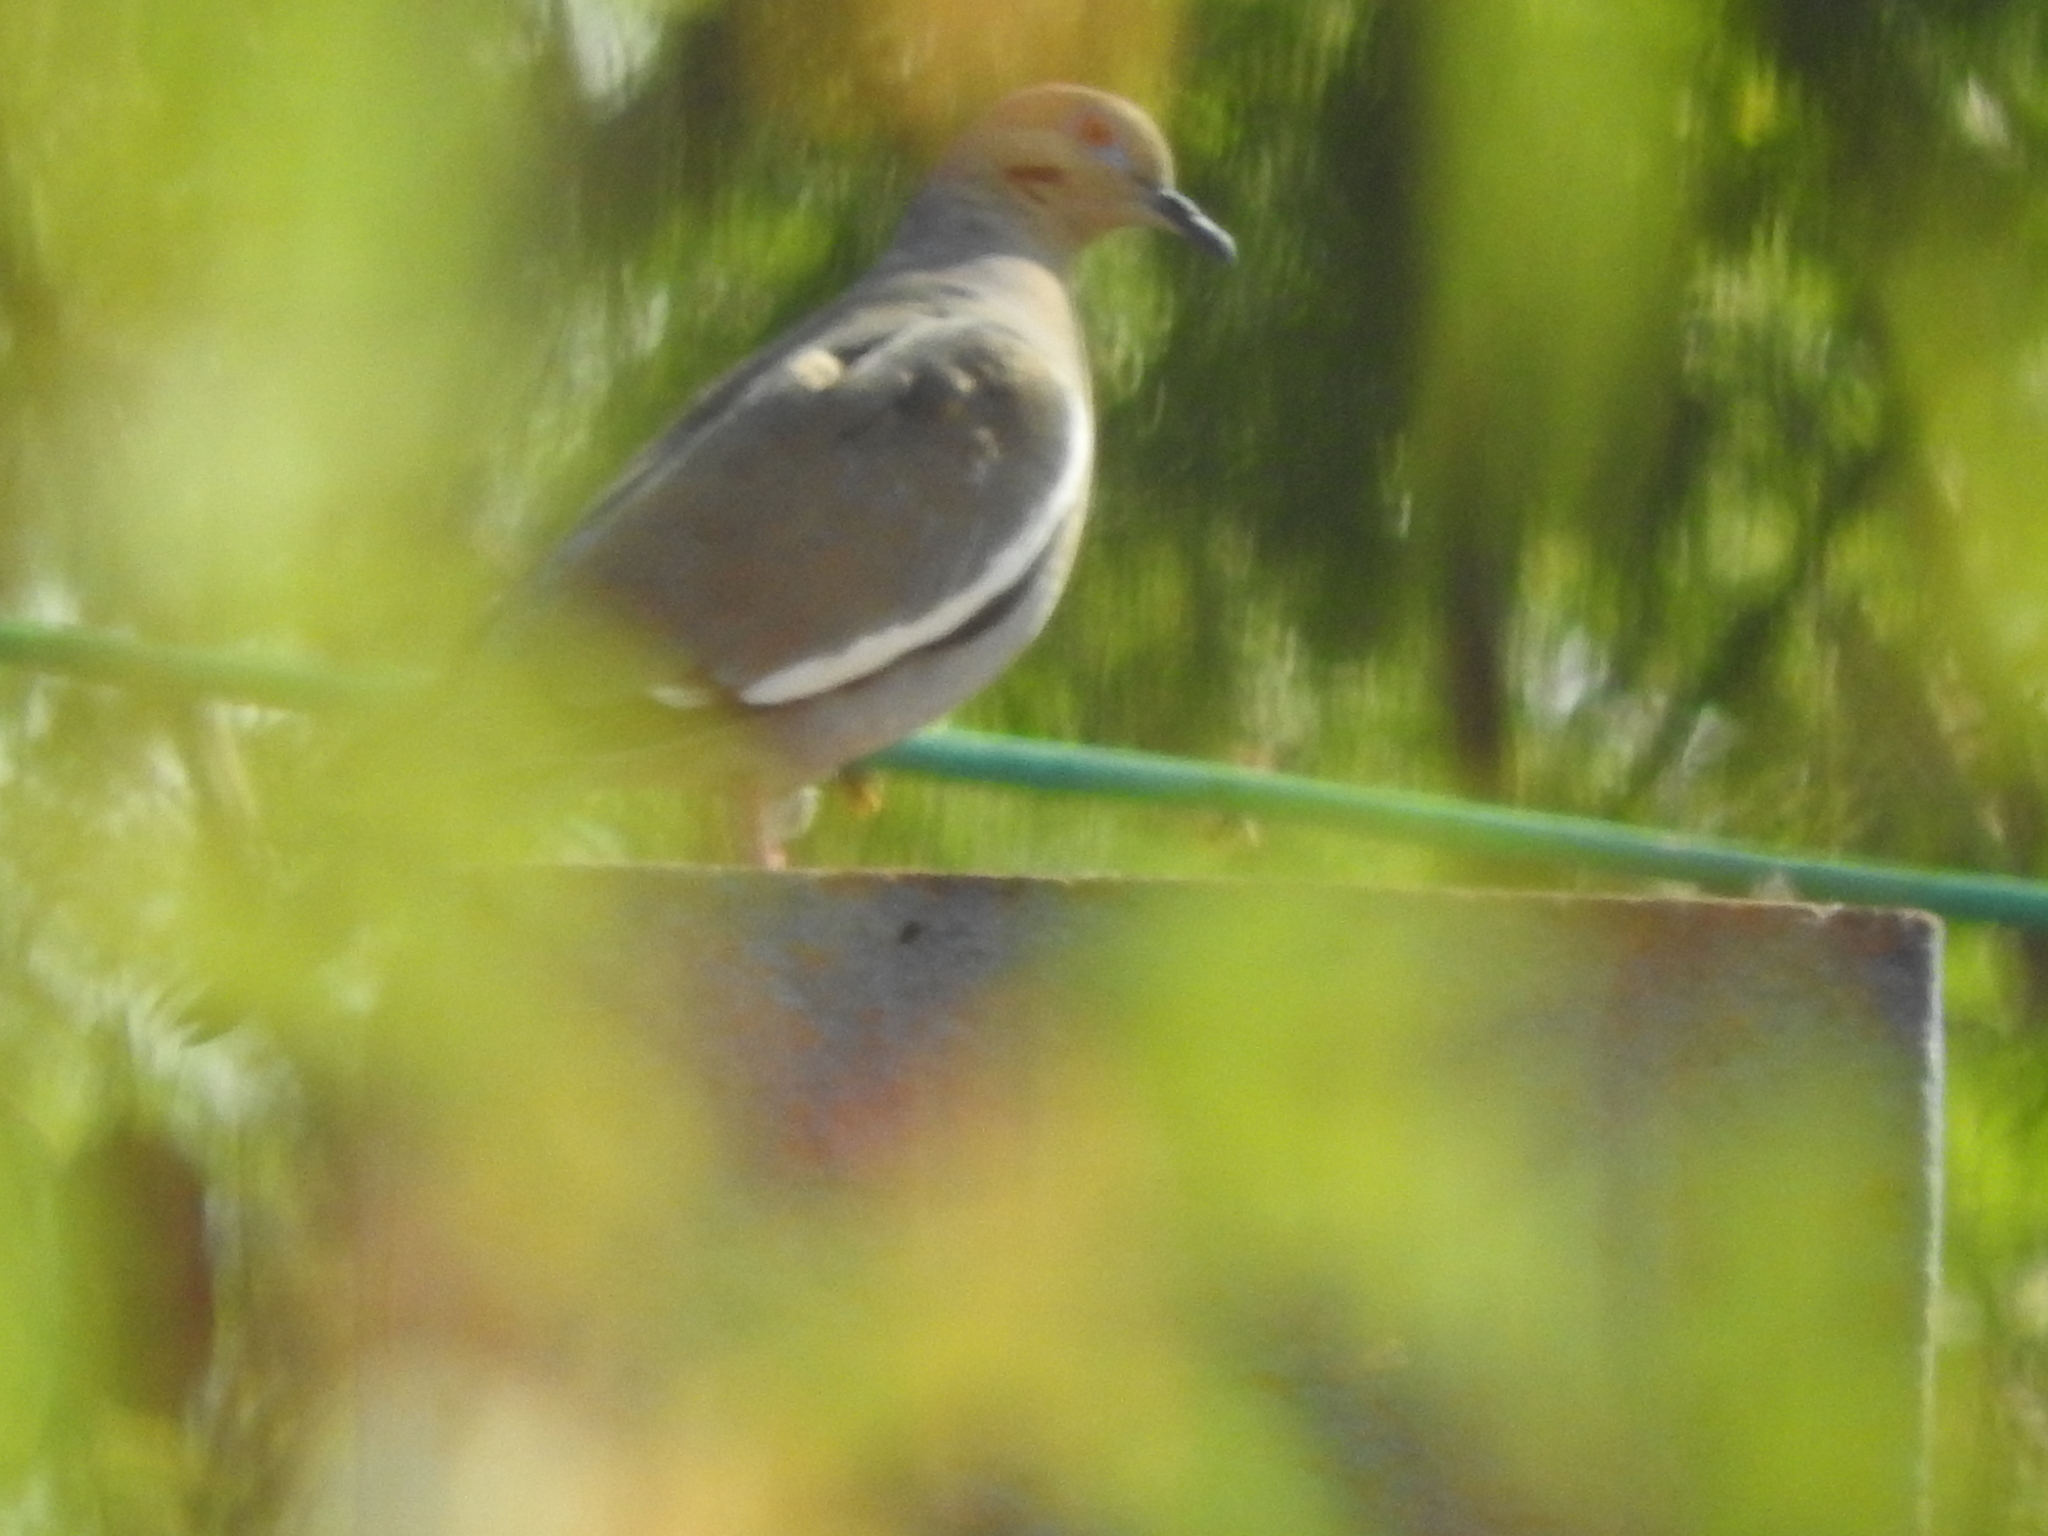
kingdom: Animalia
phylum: Chordata
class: Aves
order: Columbiformes
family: Columbidae
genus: Zenaida
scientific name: Zenaida asiatica
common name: White-winged dove
